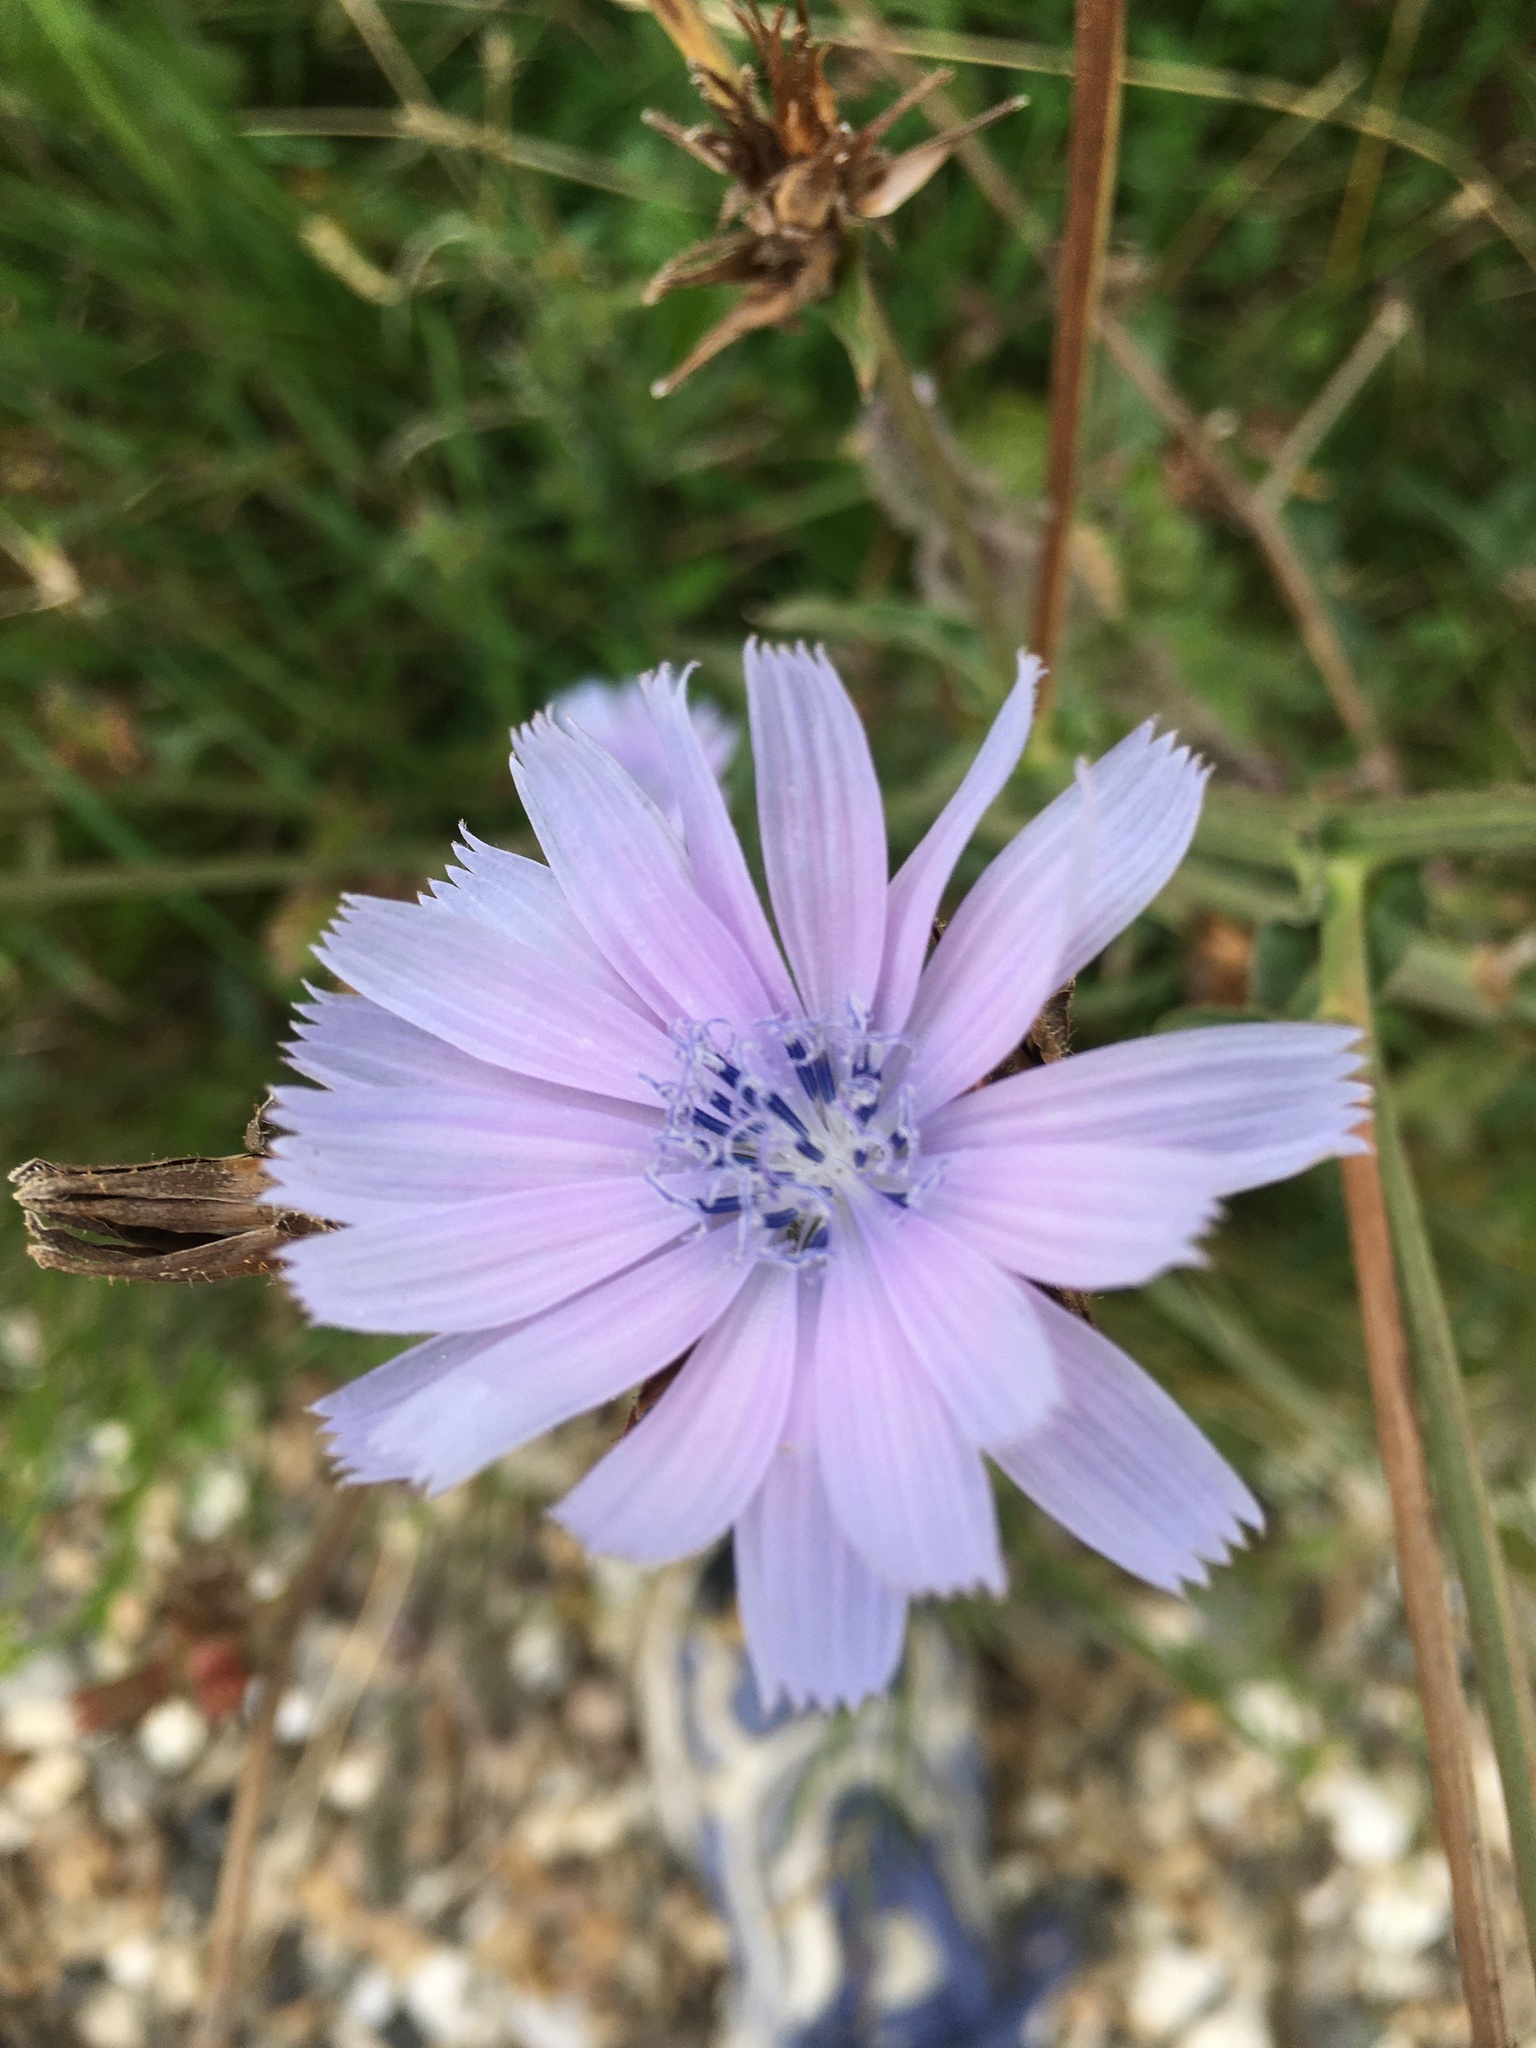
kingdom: Plantae
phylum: Tracheophyta
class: Magnoliopsida
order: Asterales
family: Asteraceae
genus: Cichorium
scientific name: Cichorium intybus
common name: Chicory
